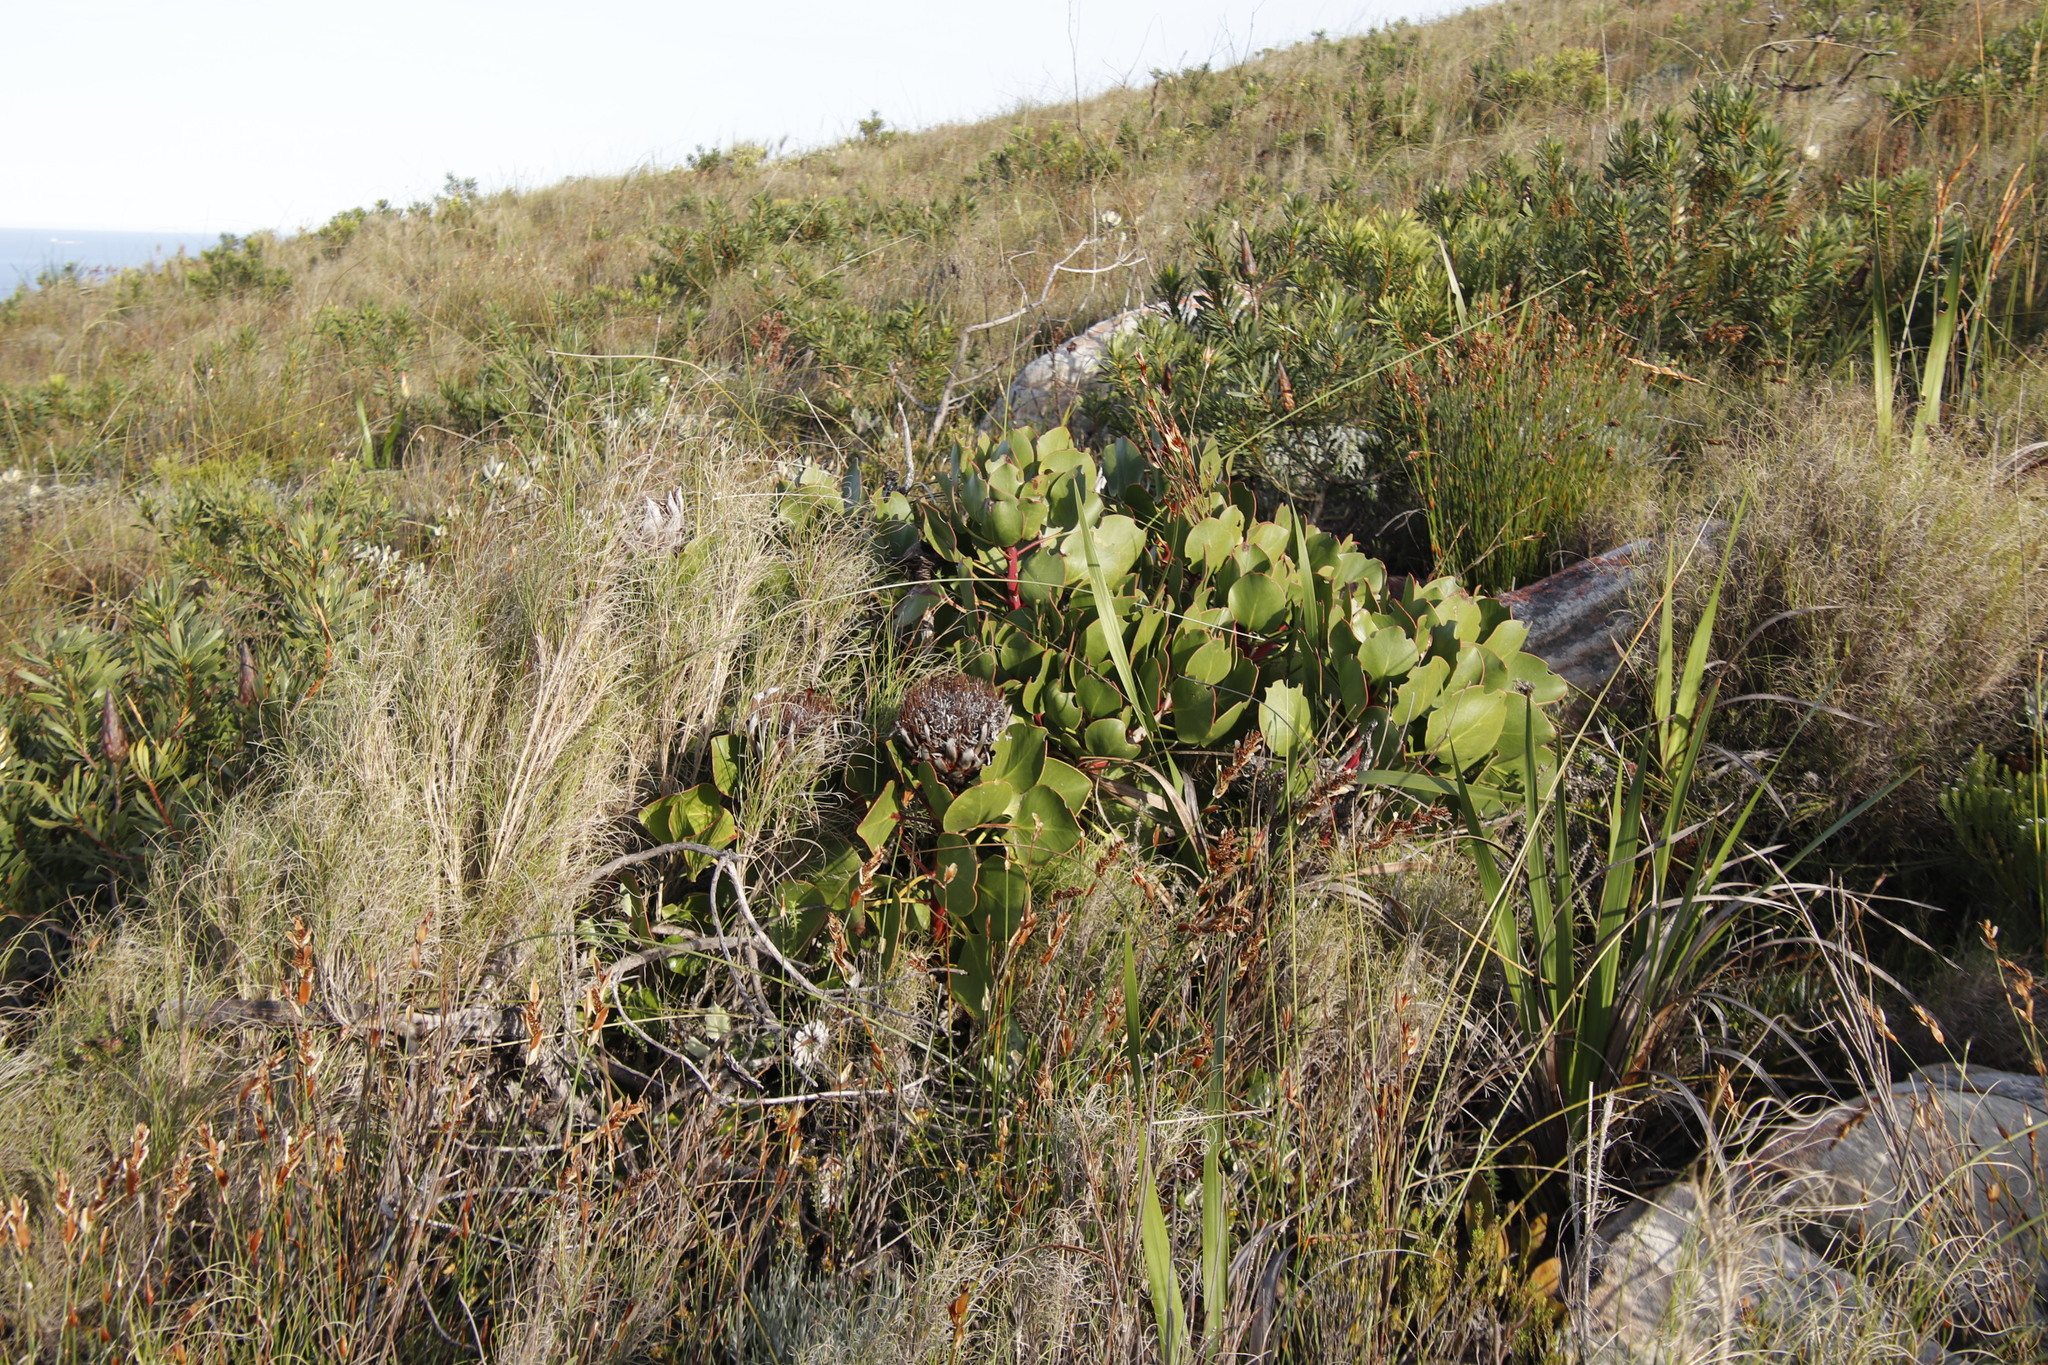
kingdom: Plantae
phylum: Tracheophyta
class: Magnoliopsida
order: Proteales
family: Proteaceae
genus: Protea
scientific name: Protea cynaroides
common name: King protea
